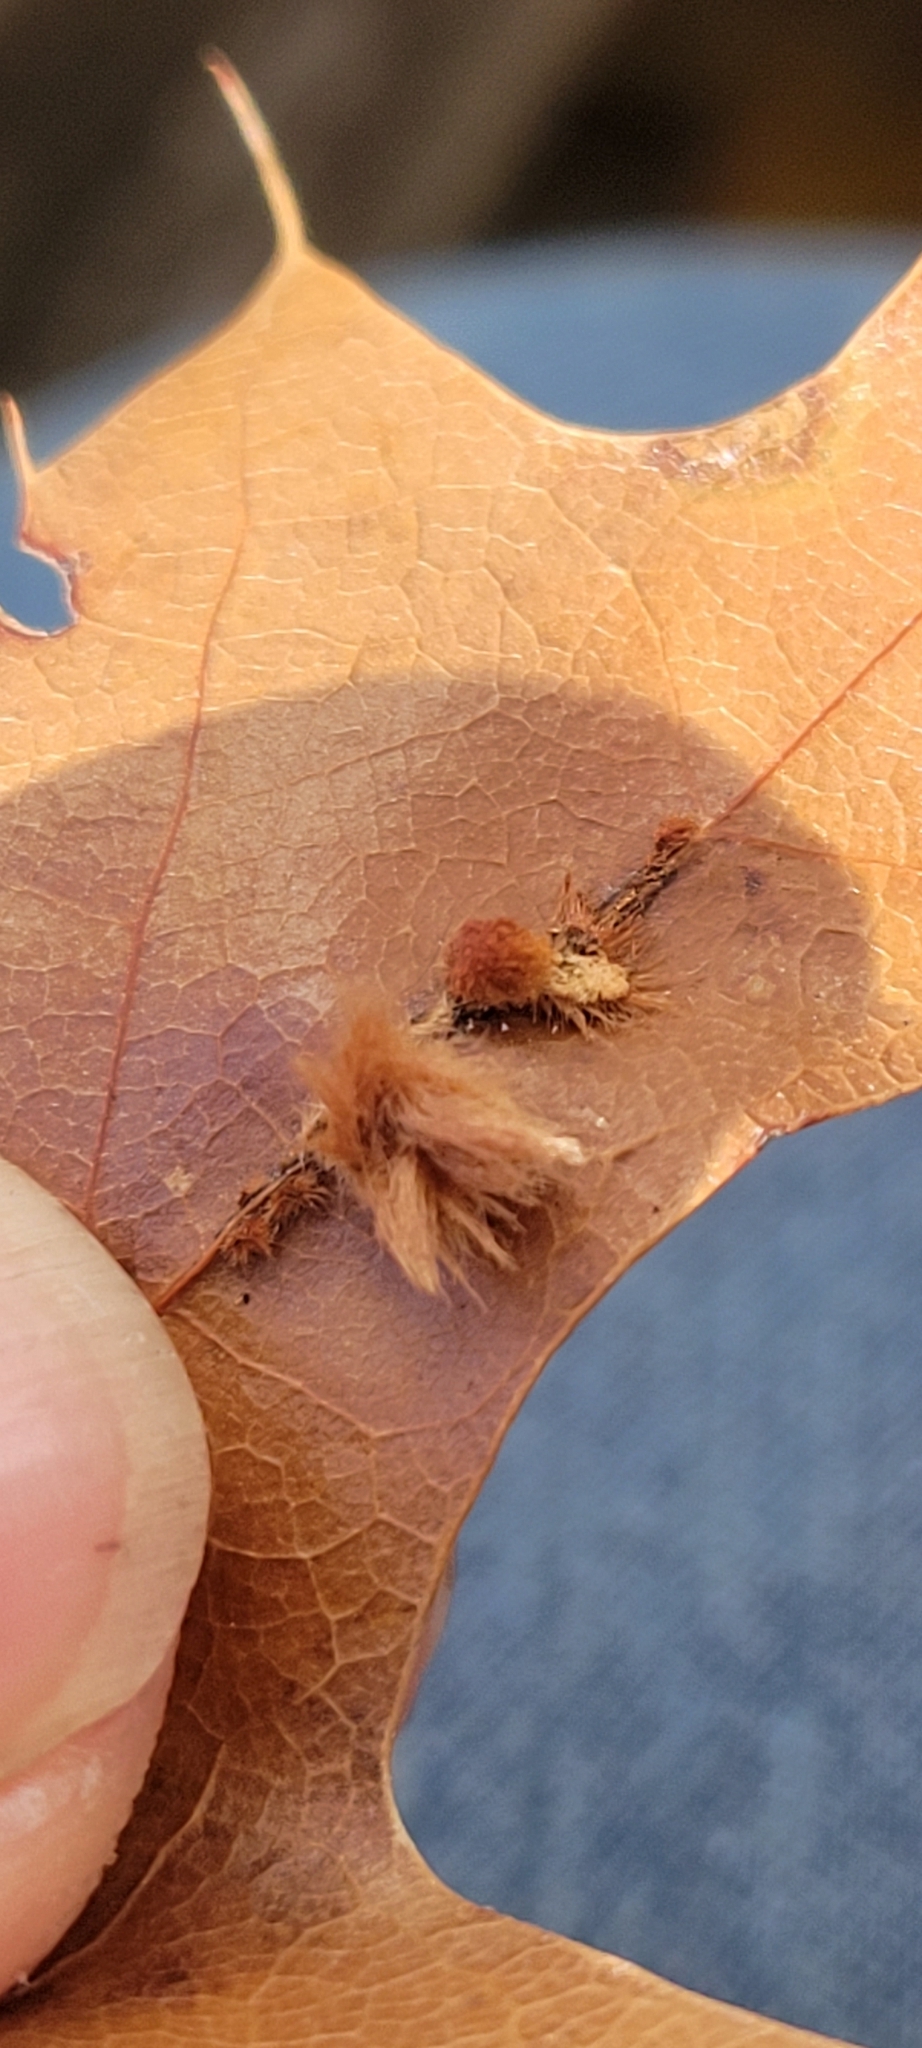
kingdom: Animalia
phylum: Arthropoda
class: Insecta
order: Hymenoptera
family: Cynipidae
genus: Callirhytis
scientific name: Callirhytis
